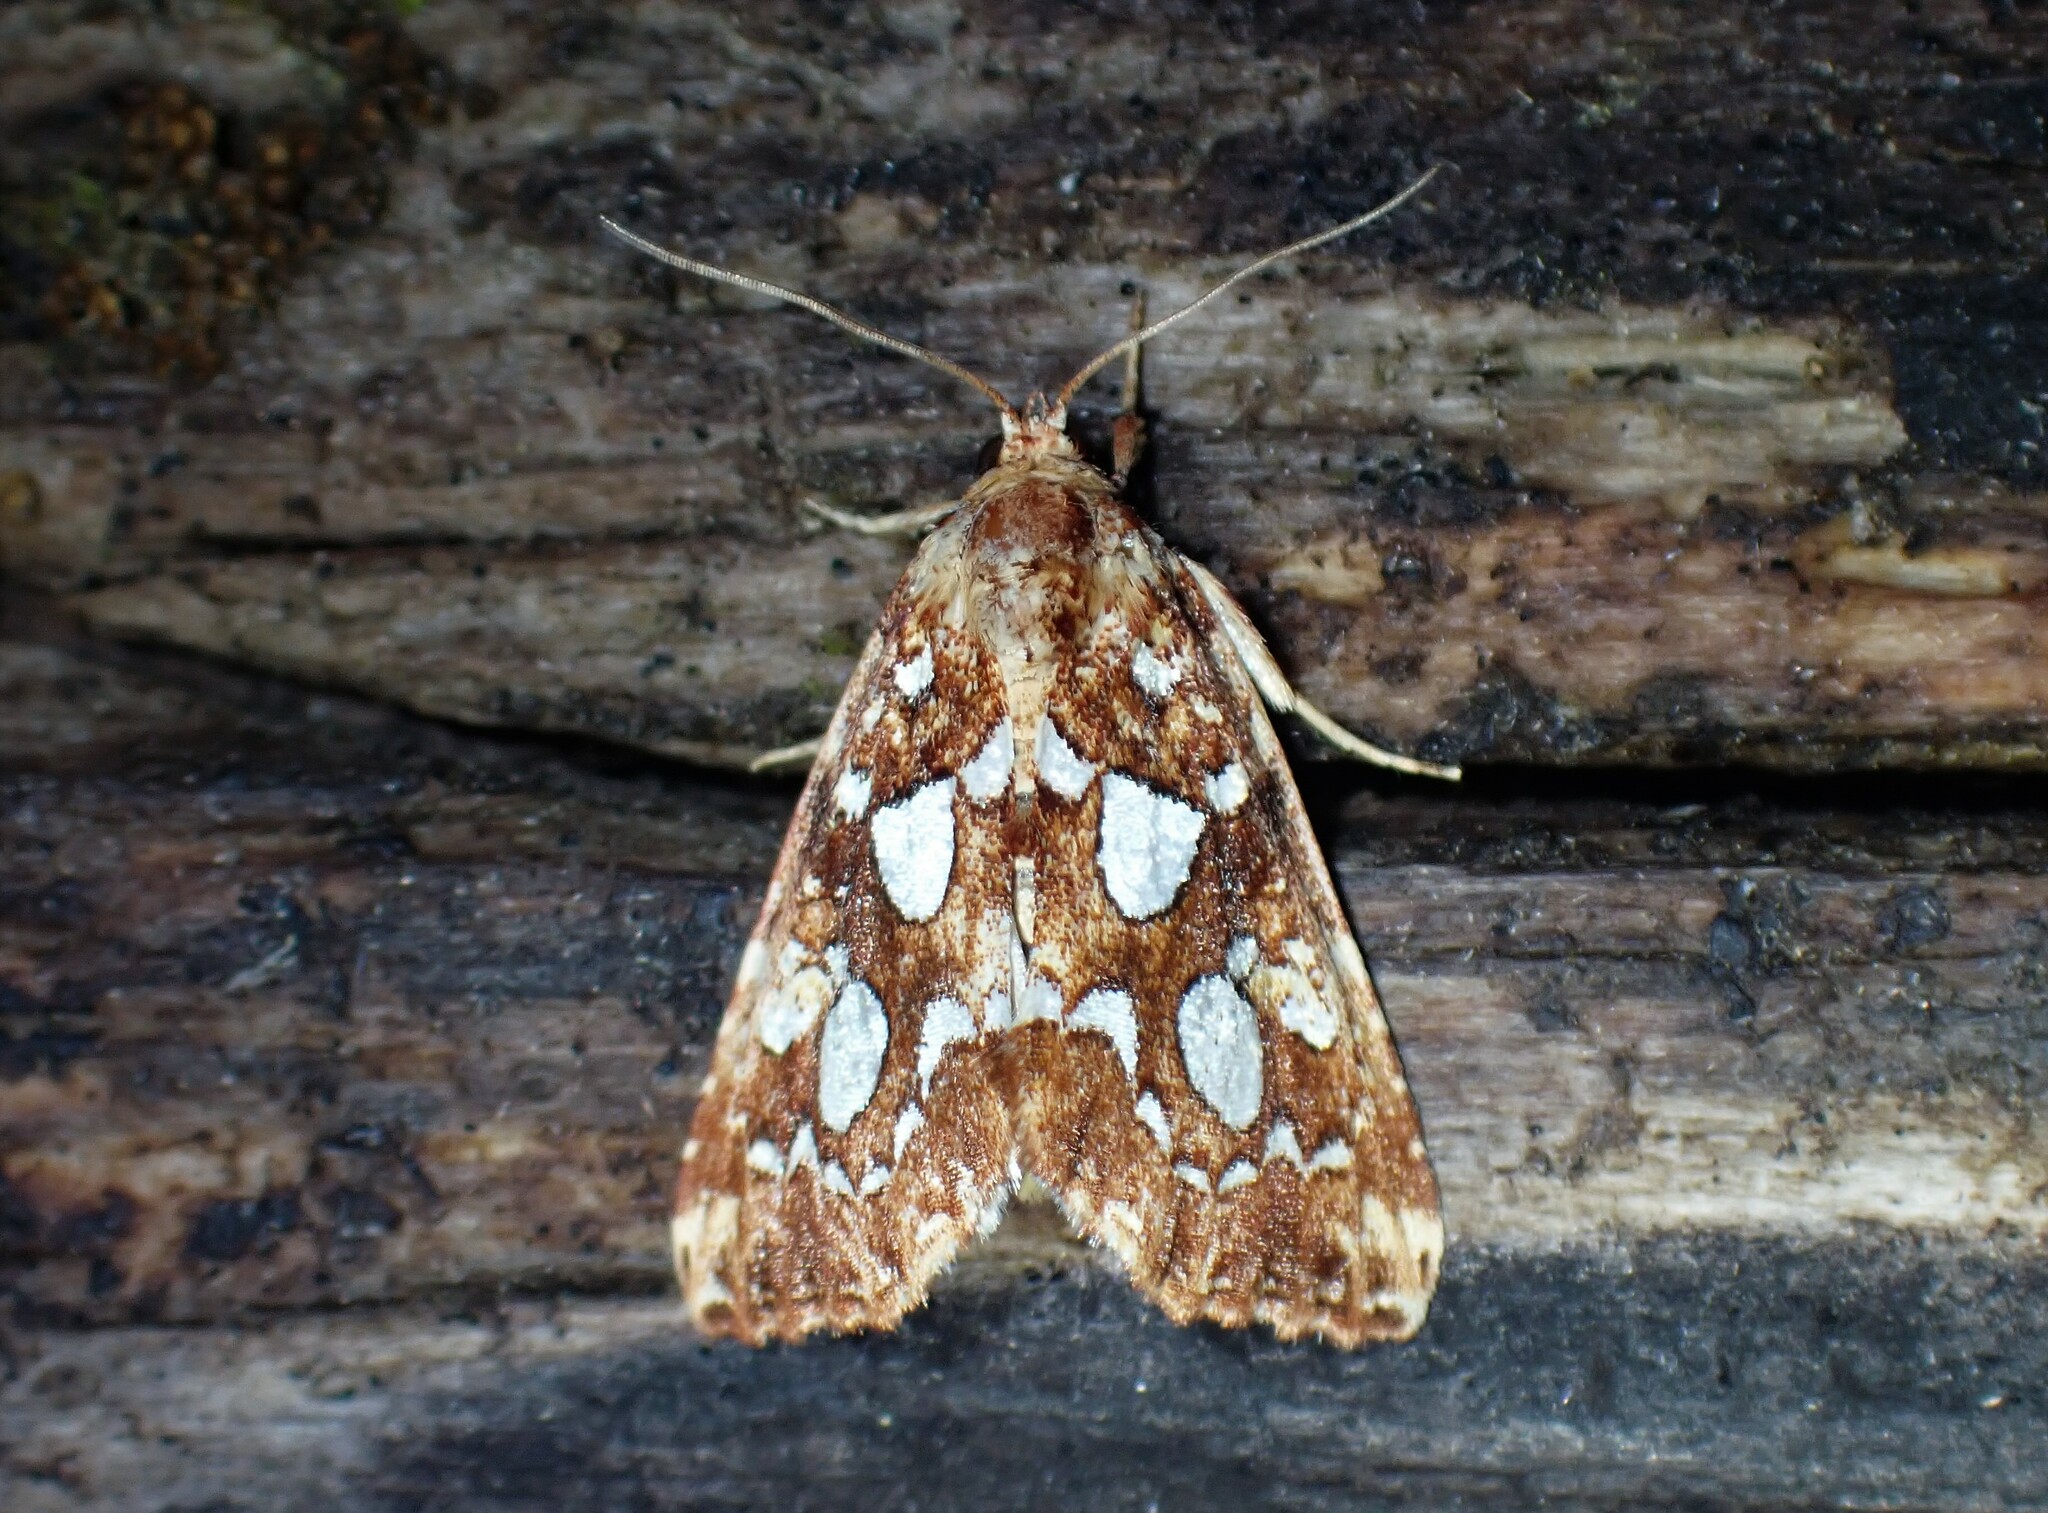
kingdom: Animalia
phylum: Arthropoda
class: Insecta
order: Lepidoptera
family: Noctuidae
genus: Callopistria
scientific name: Callopistria cordata
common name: Silver-spotted fern moth
